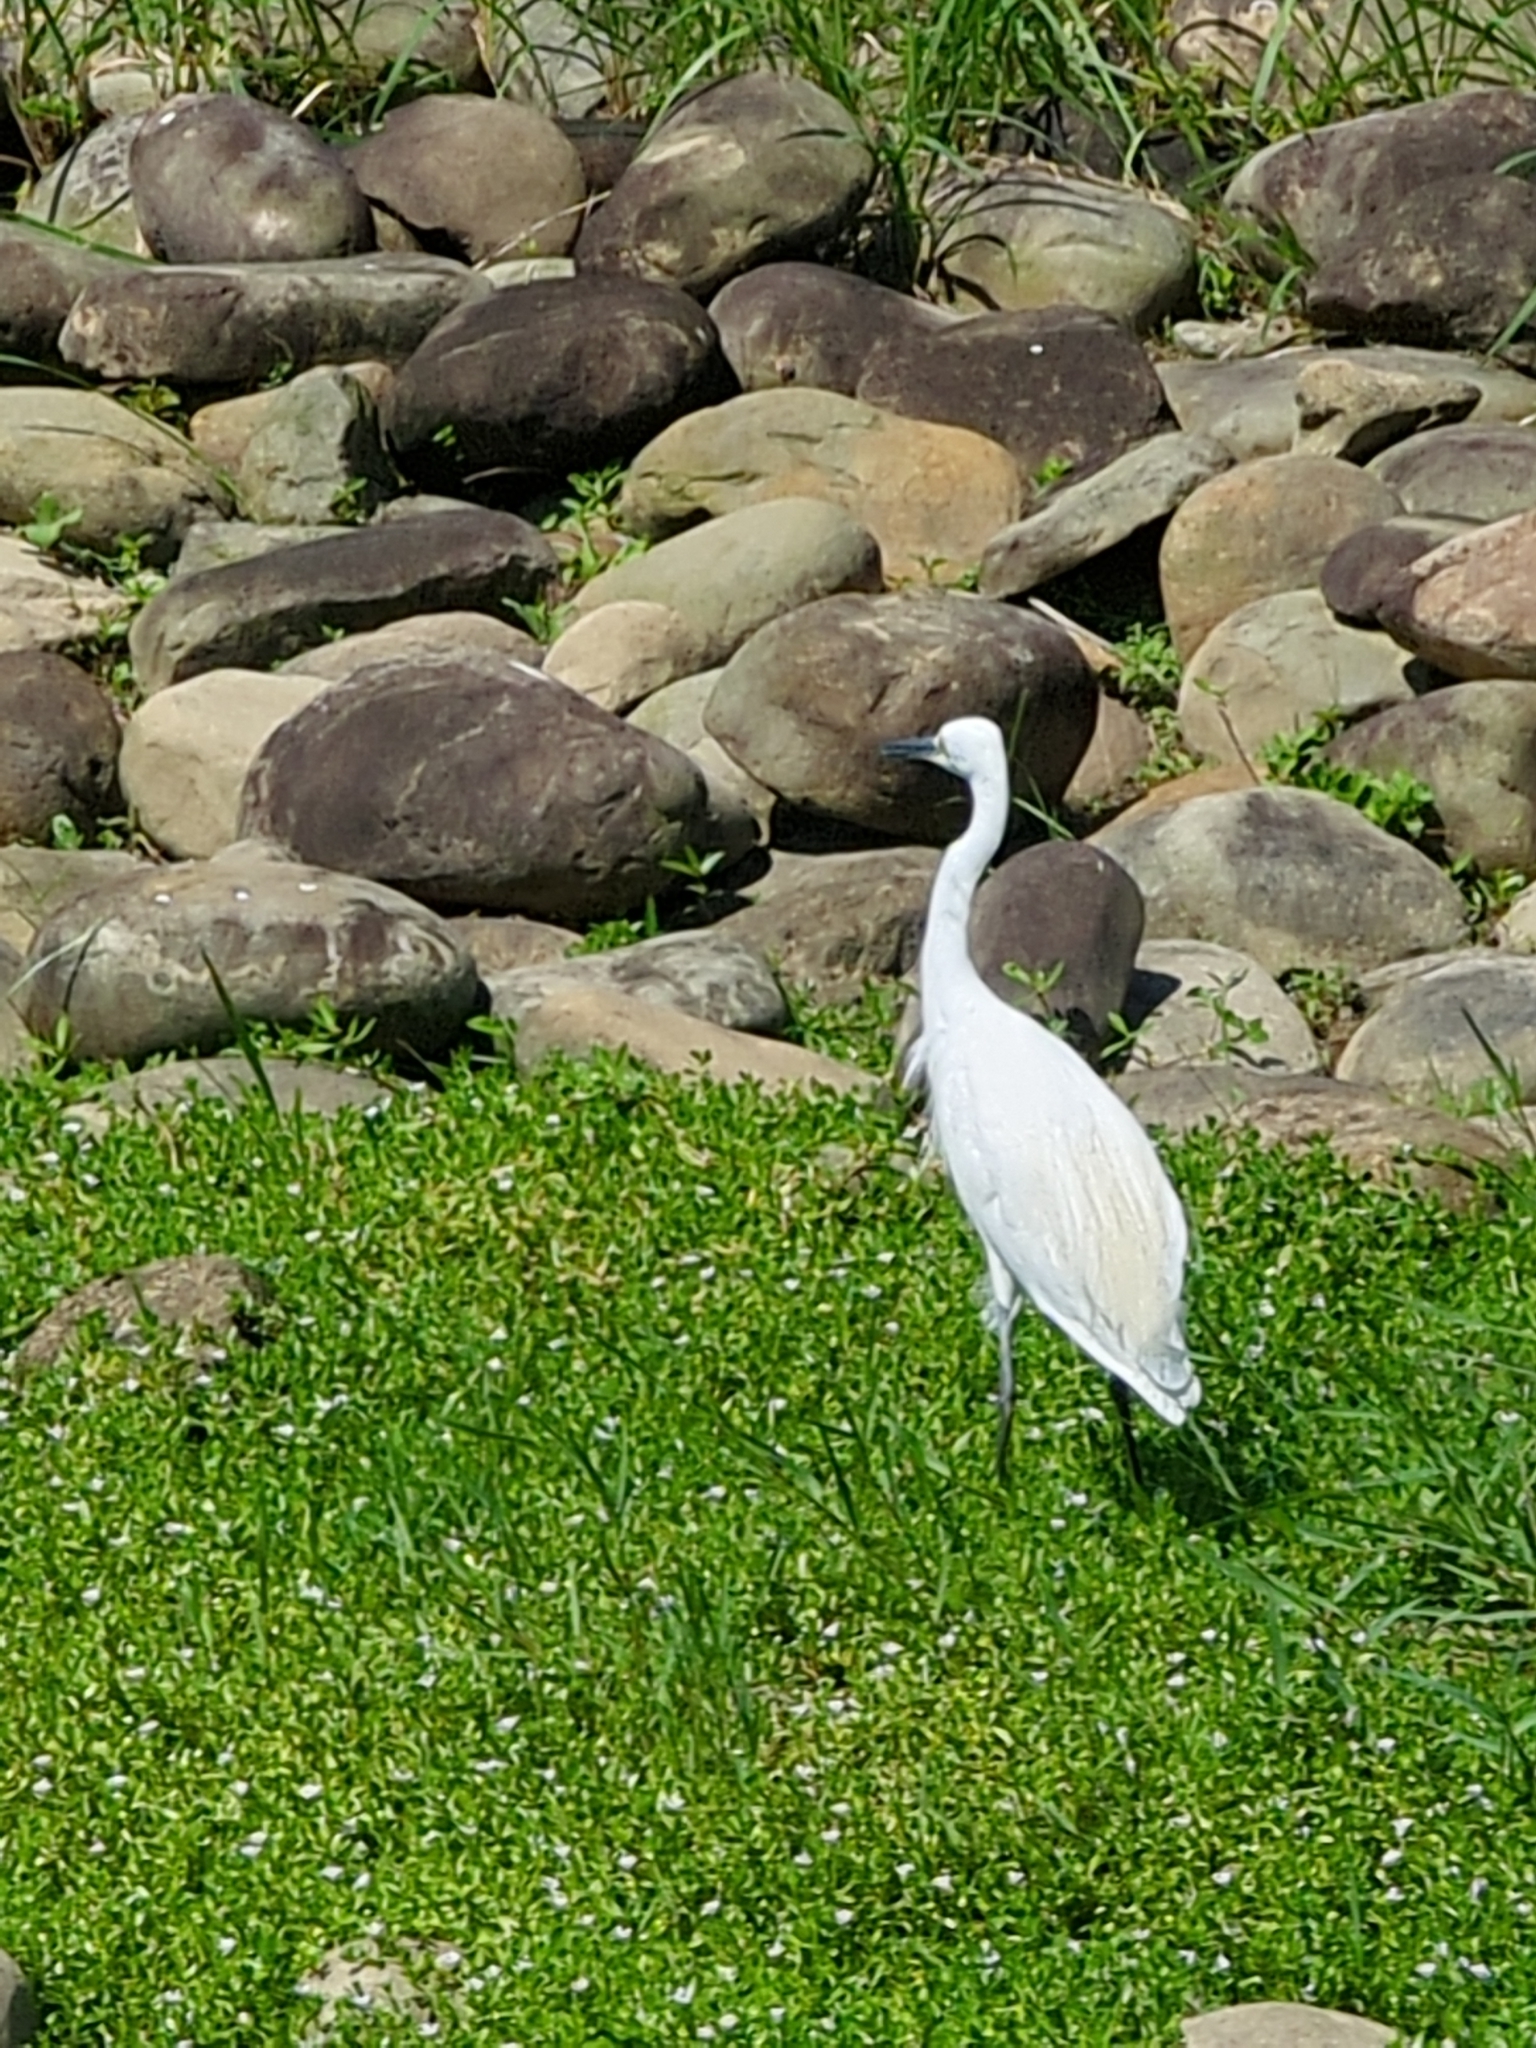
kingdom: Animalia
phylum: Chordata
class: Aves
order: Pelecaniformes
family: Ardeidae
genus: Egretta
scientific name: Egretta garzetta
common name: Little egret
